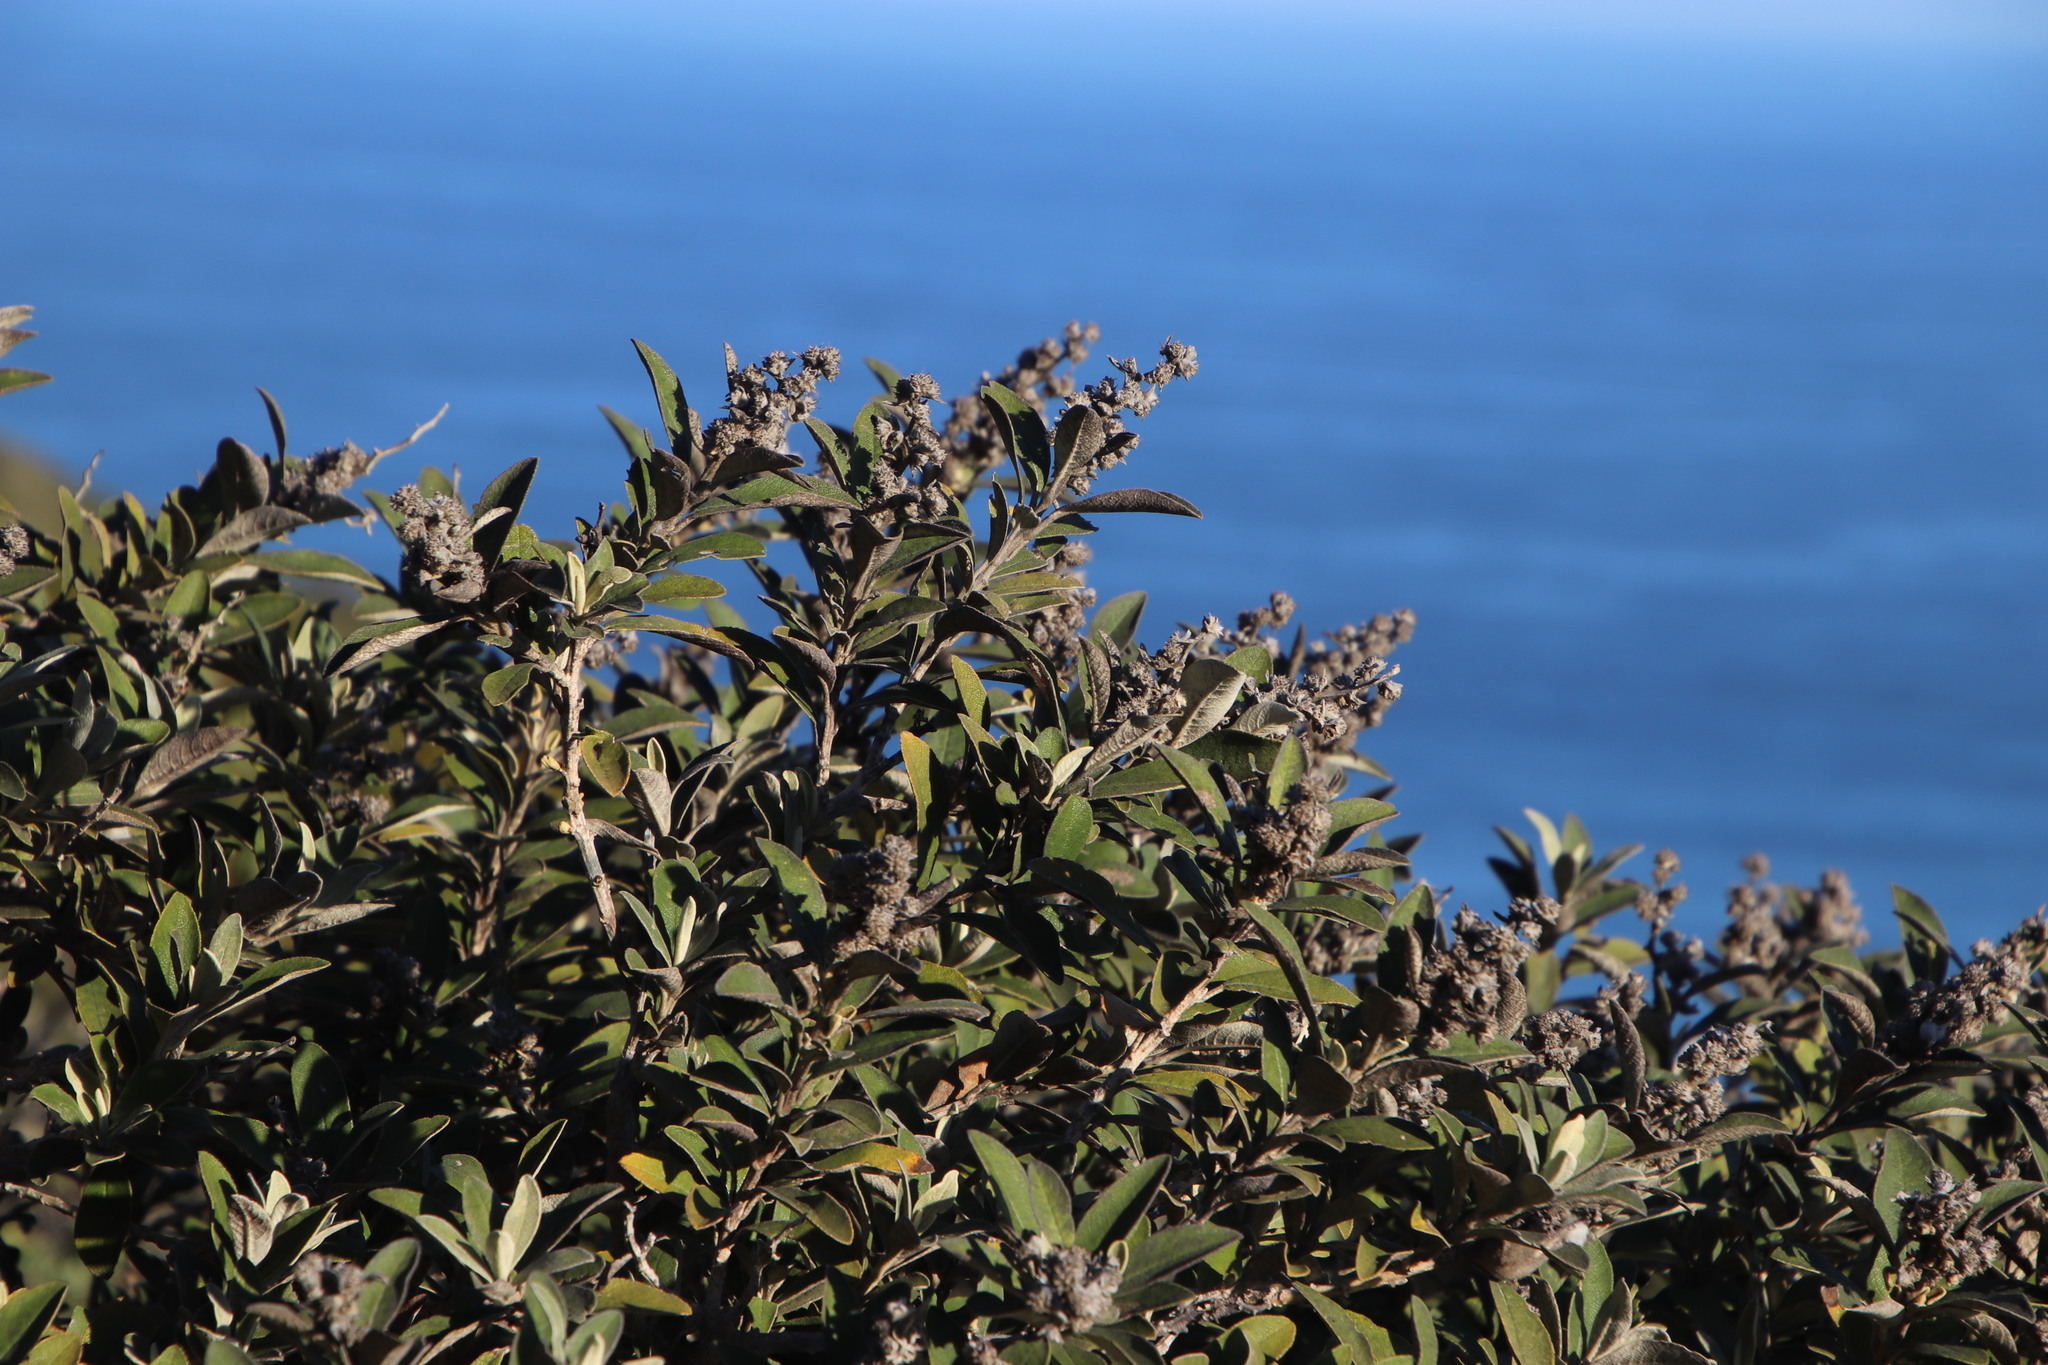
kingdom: Plantae
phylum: Tracheophyta
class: Magnoliopsida
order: Asterales
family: Asteraceae
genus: Tarchonanthus
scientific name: Tarchonanthus littoralis
